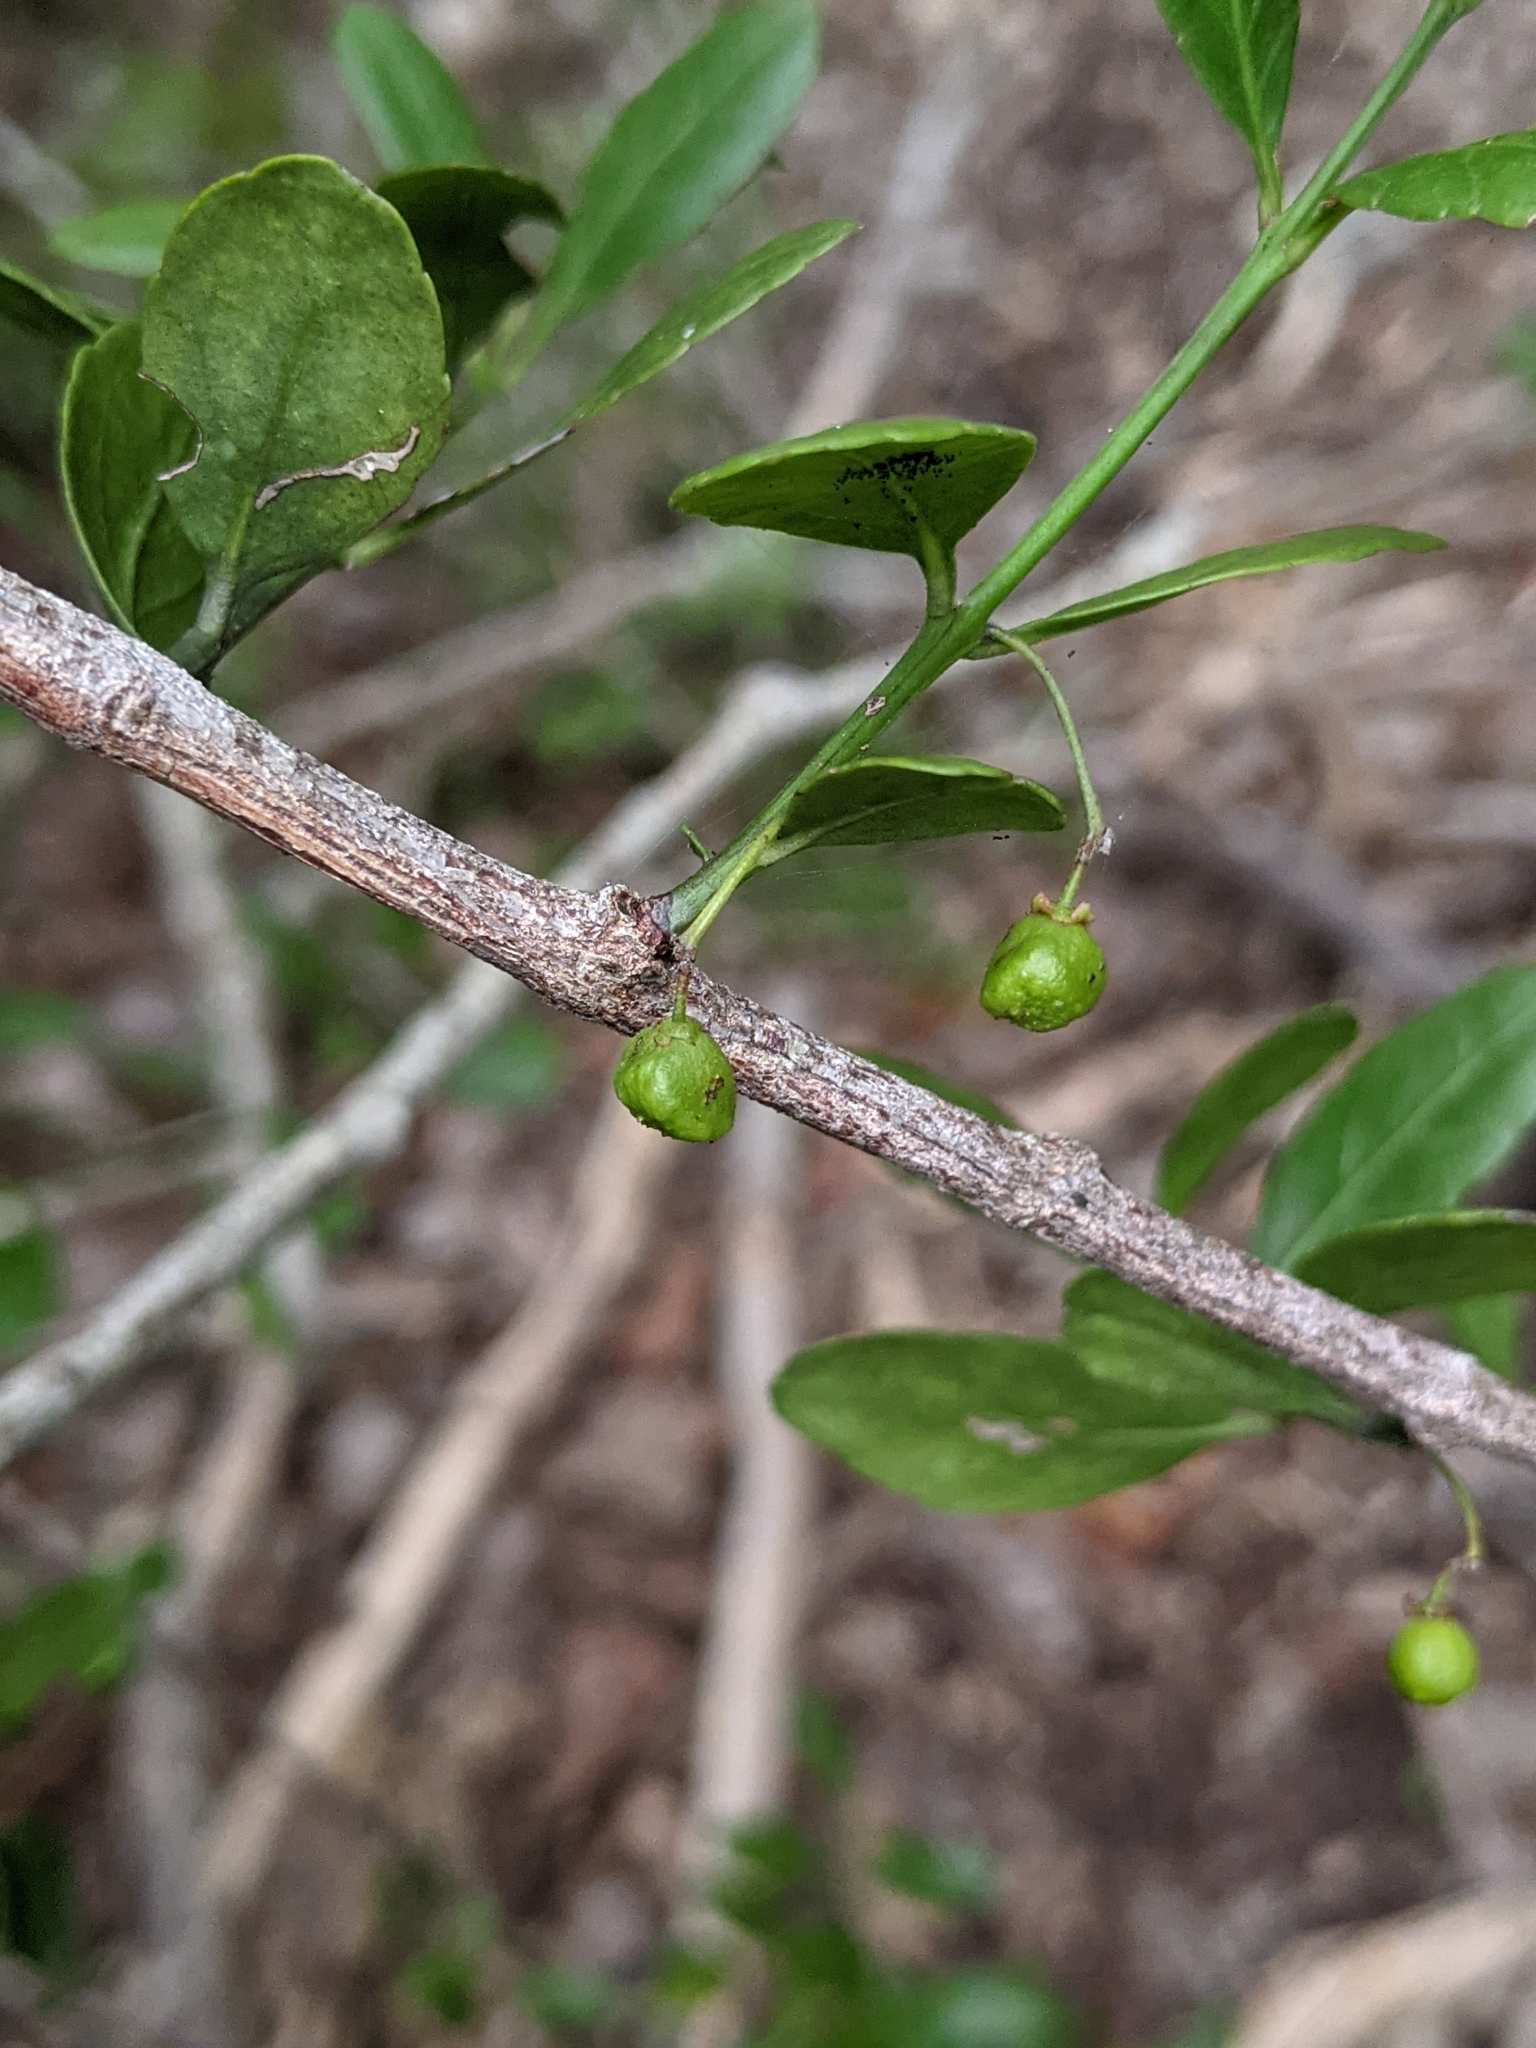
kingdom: Plantae
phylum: Tracheophyta
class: Magnoliopsida
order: Celastrales
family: Celastraceae
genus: Crossopetalum
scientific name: Crossopetalum rhacoma
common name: Maidenberry
